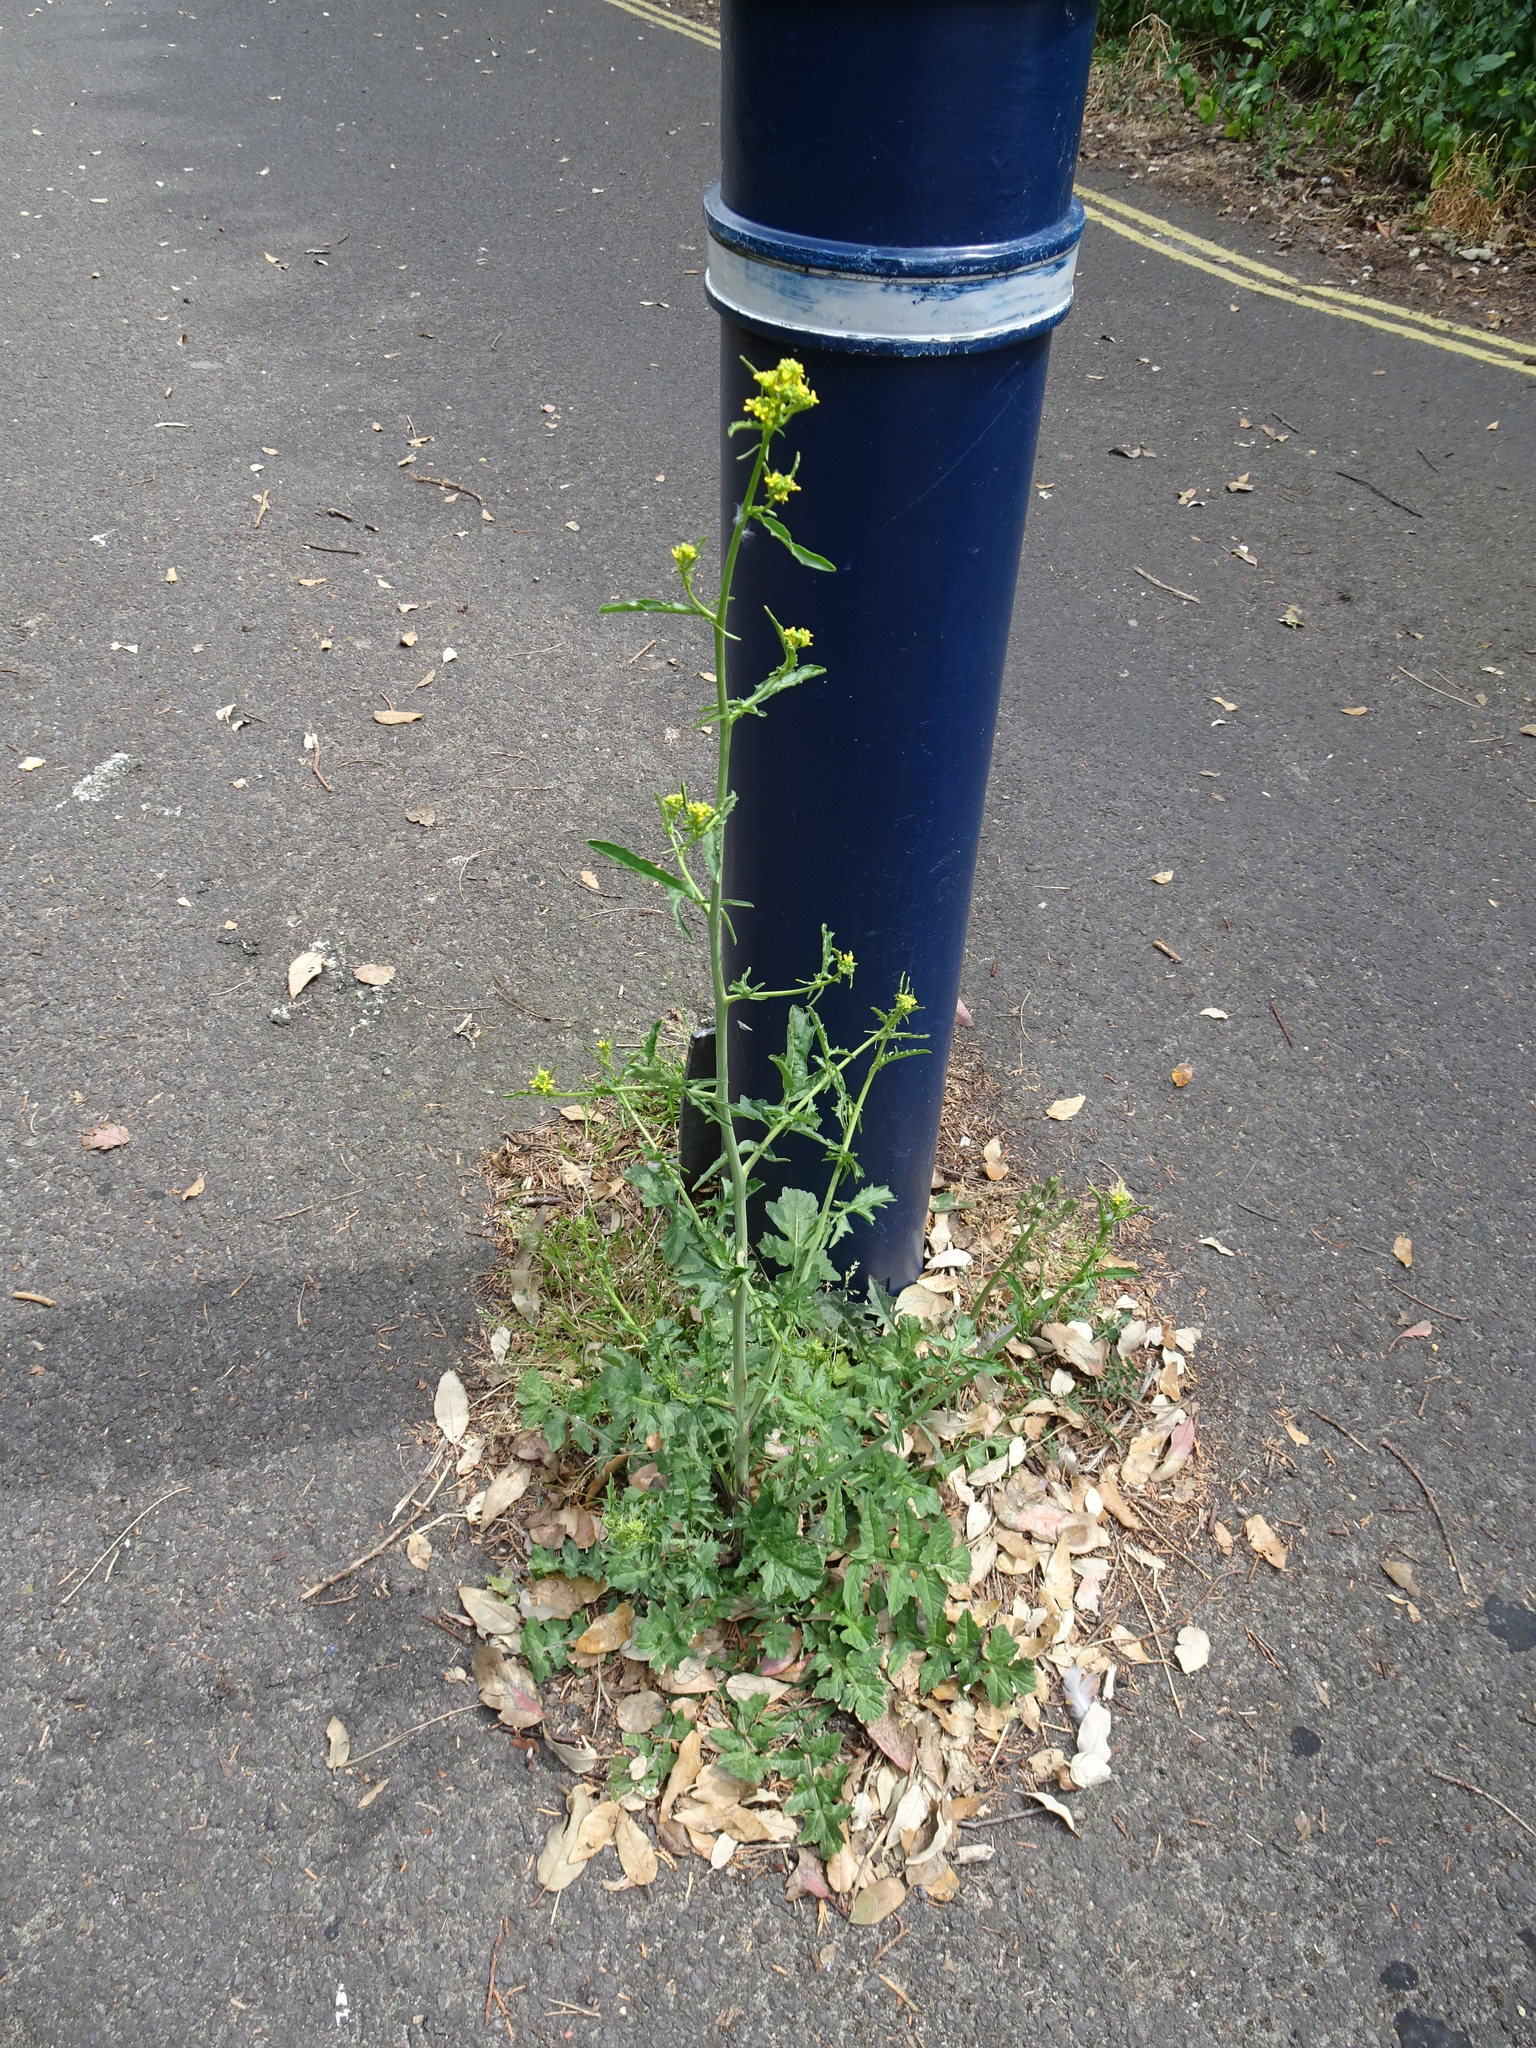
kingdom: Plantae
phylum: Tracheophyta
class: Magnoliopsida
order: Brassicales
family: Brassicaceae
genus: Sisymbrium
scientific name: Sisymbrium officinale
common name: Hedge mustard
